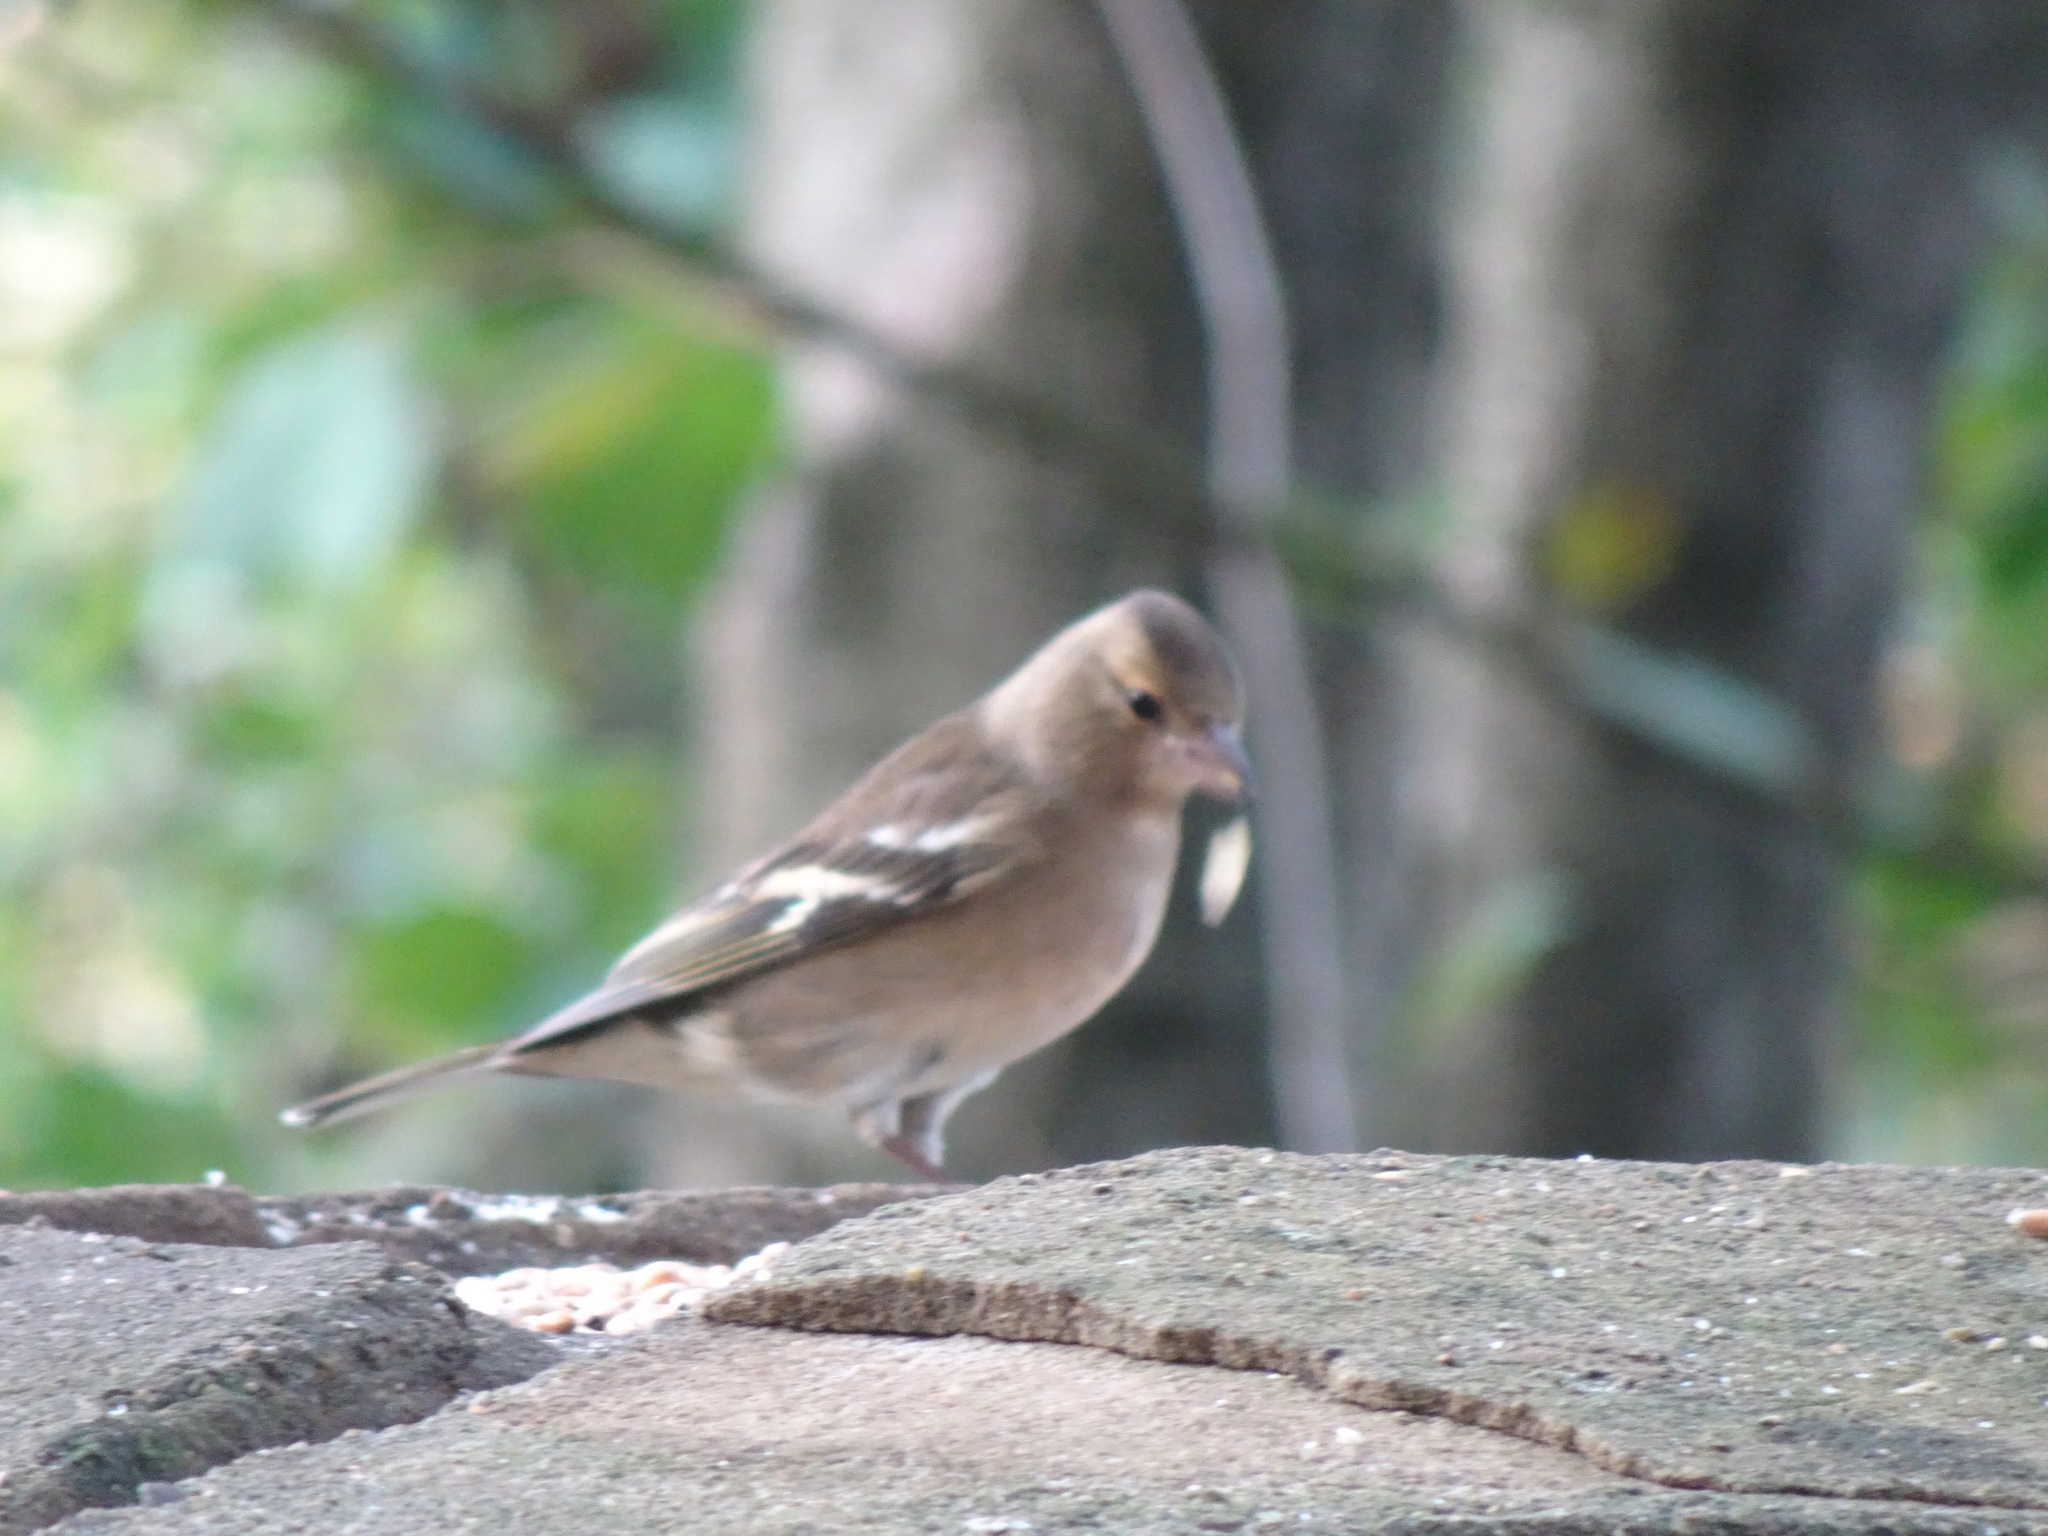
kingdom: Animalia
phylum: Chordata
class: Aves
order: Passeriformes
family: Fringillidae
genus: Fringilla
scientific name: Fringilla coelebs
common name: Common chaffinch
